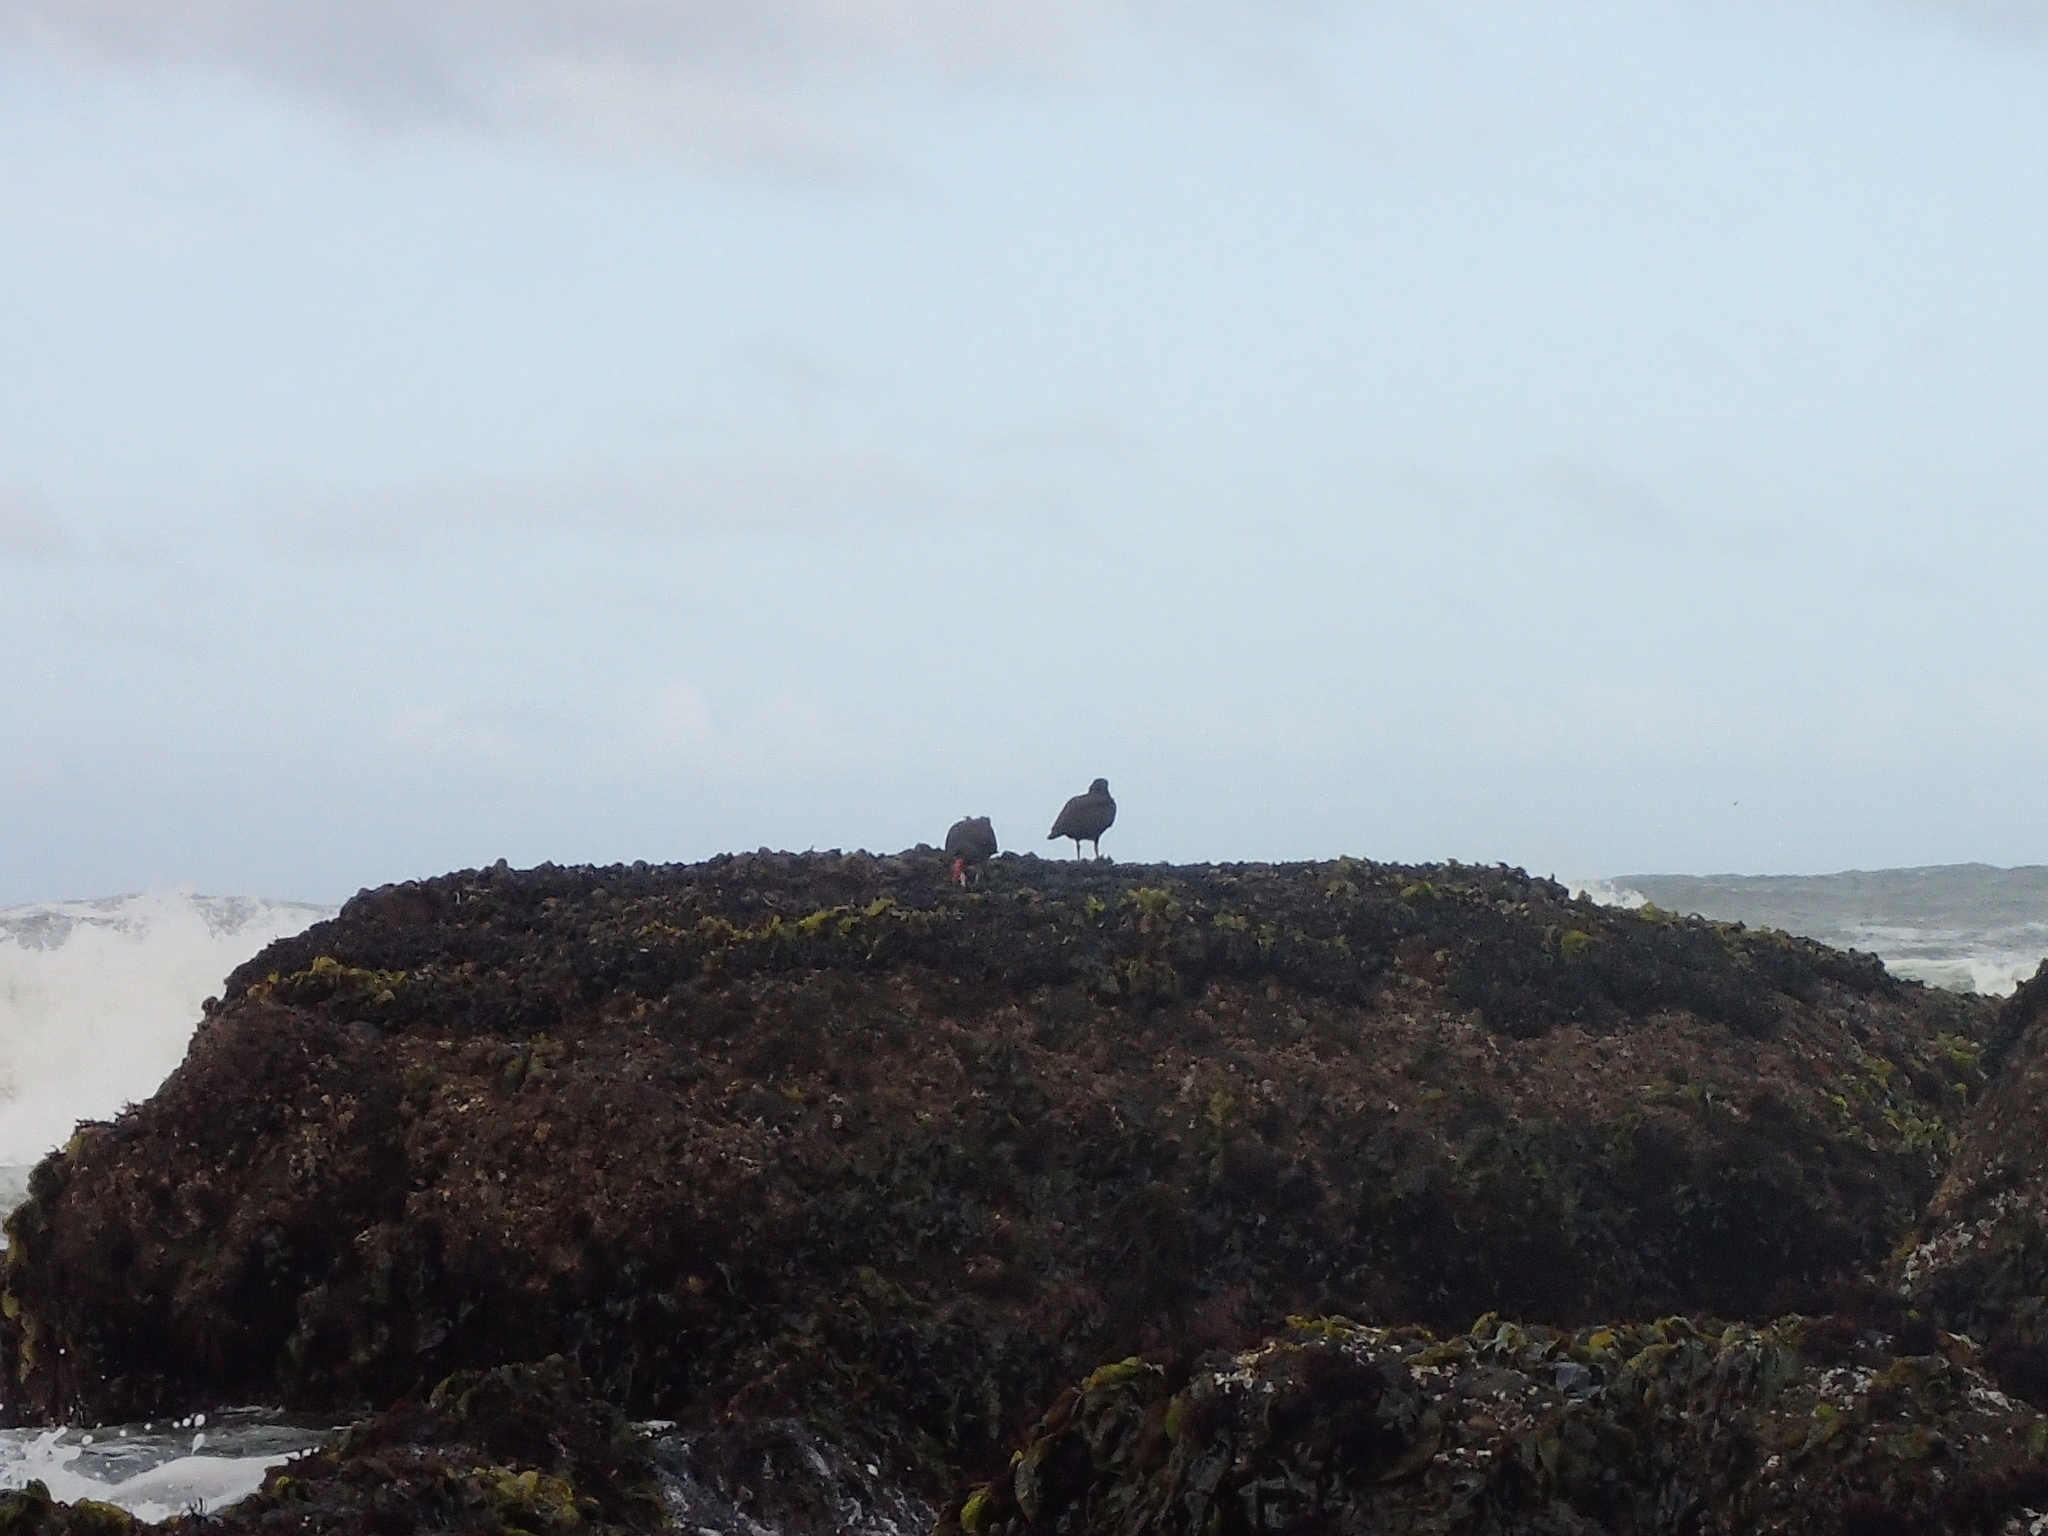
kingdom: Animalia
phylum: Chordata
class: Aves
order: Charadriiformes
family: Haematopodidae
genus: Haematopus
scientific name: Haematopus bachmani
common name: Black oystercatcher
